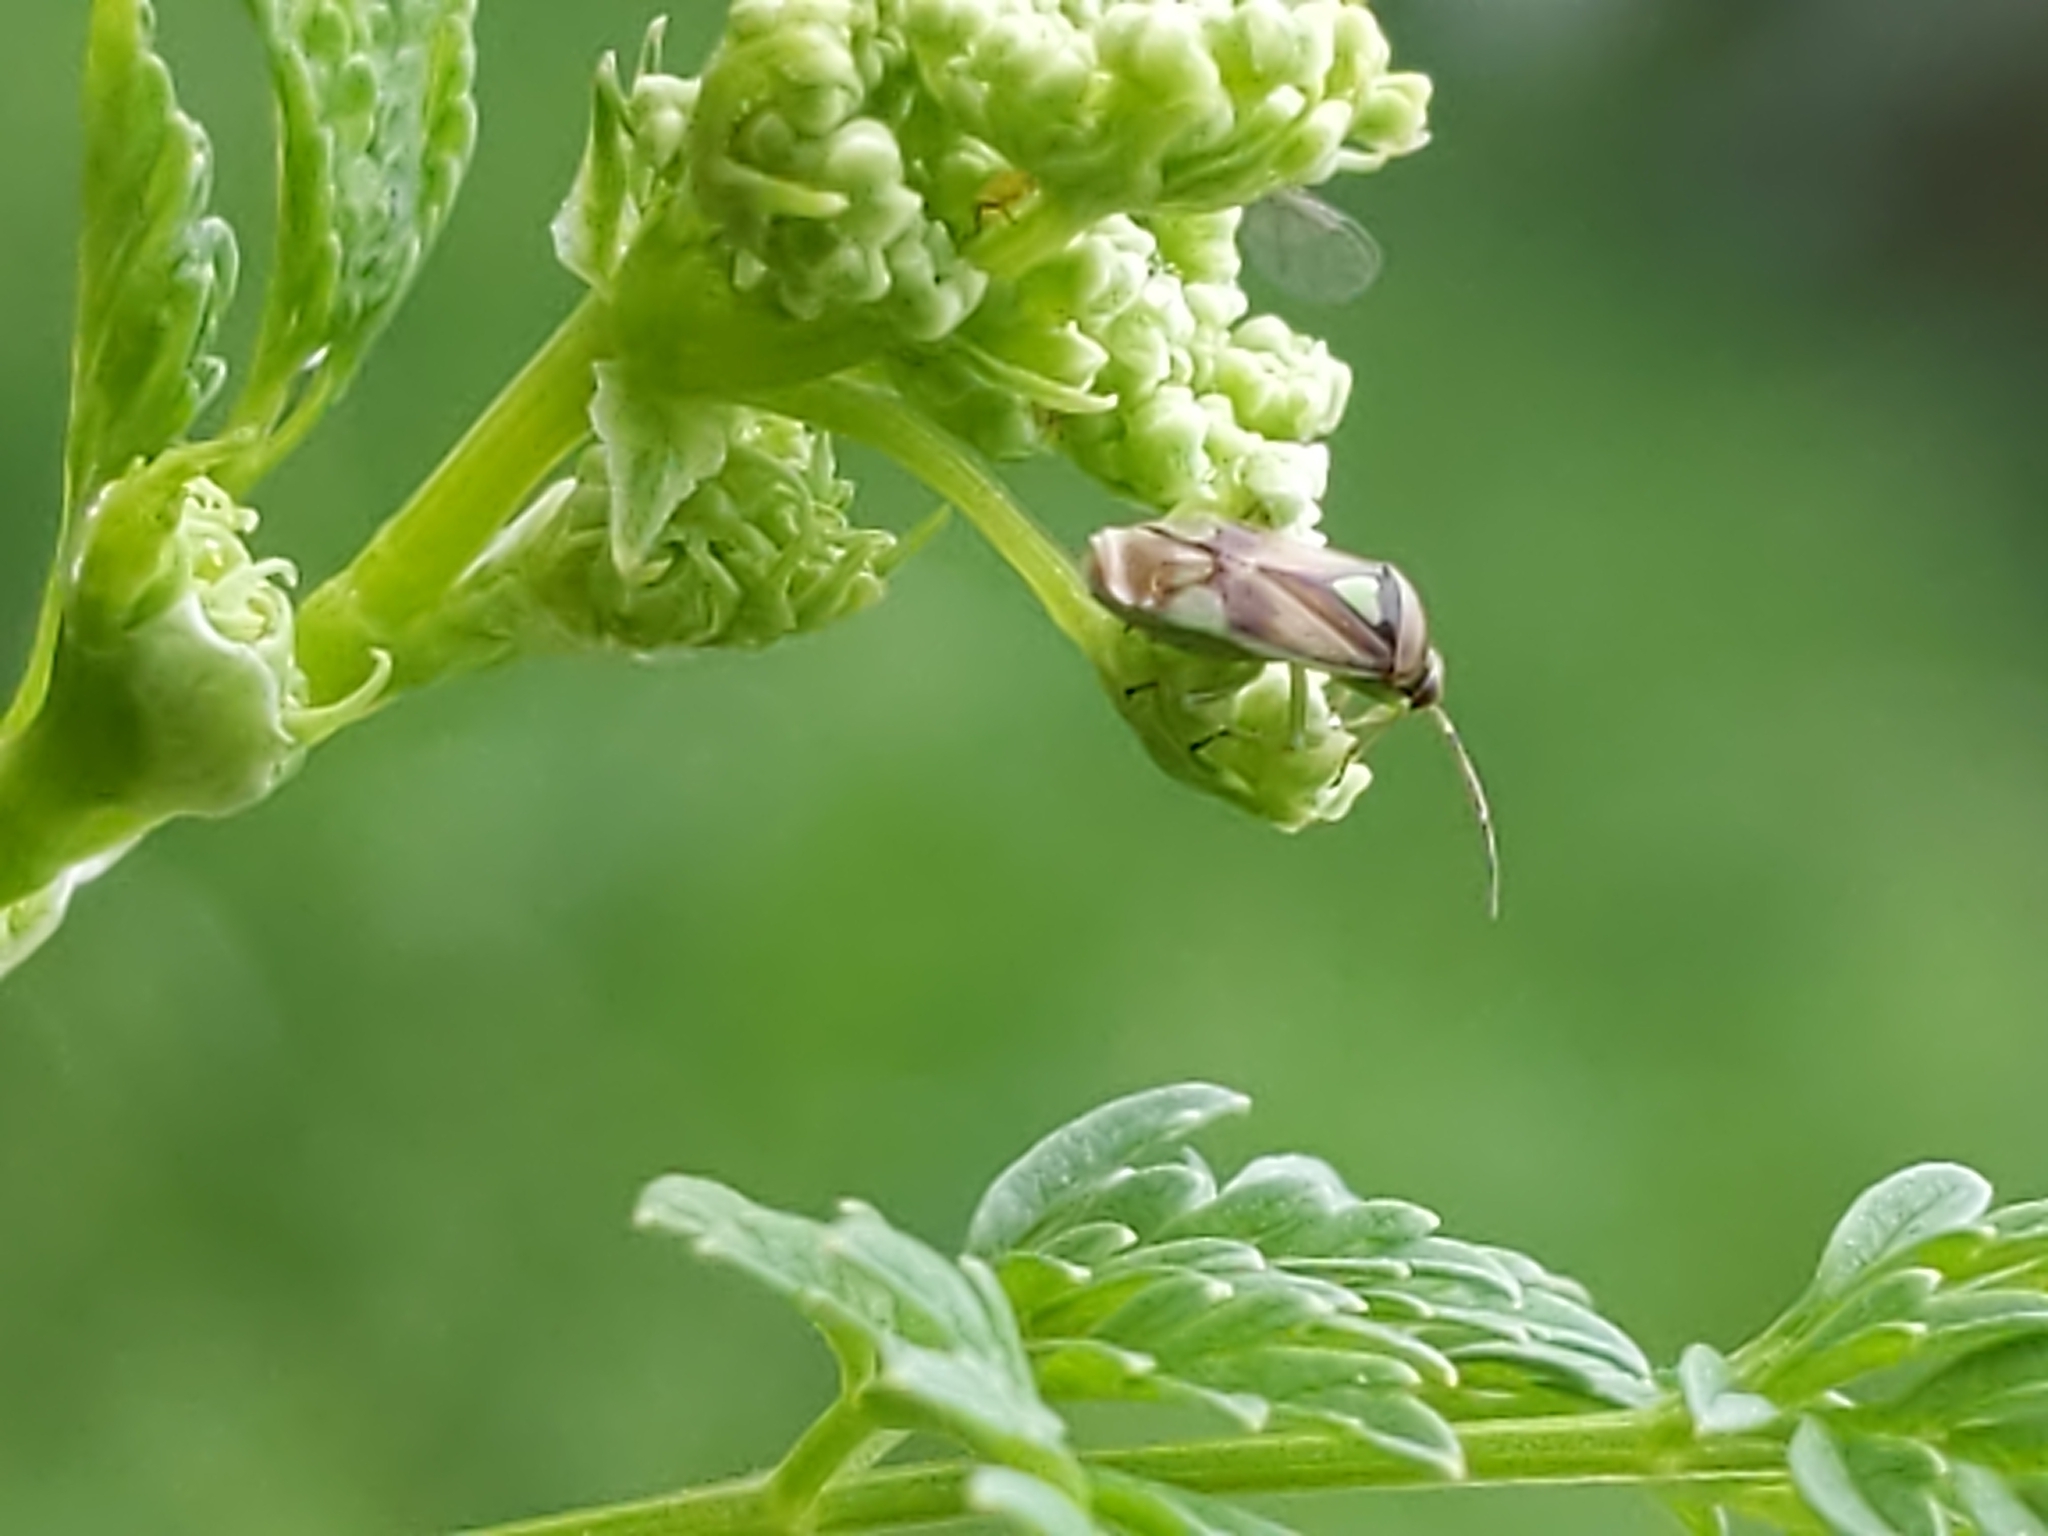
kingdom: Animalia
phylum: Arthropoda
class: Insecta
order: Hemiptera
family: Miridae
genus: Orthops
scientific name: Orthops scutellatus
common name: Plant bug
